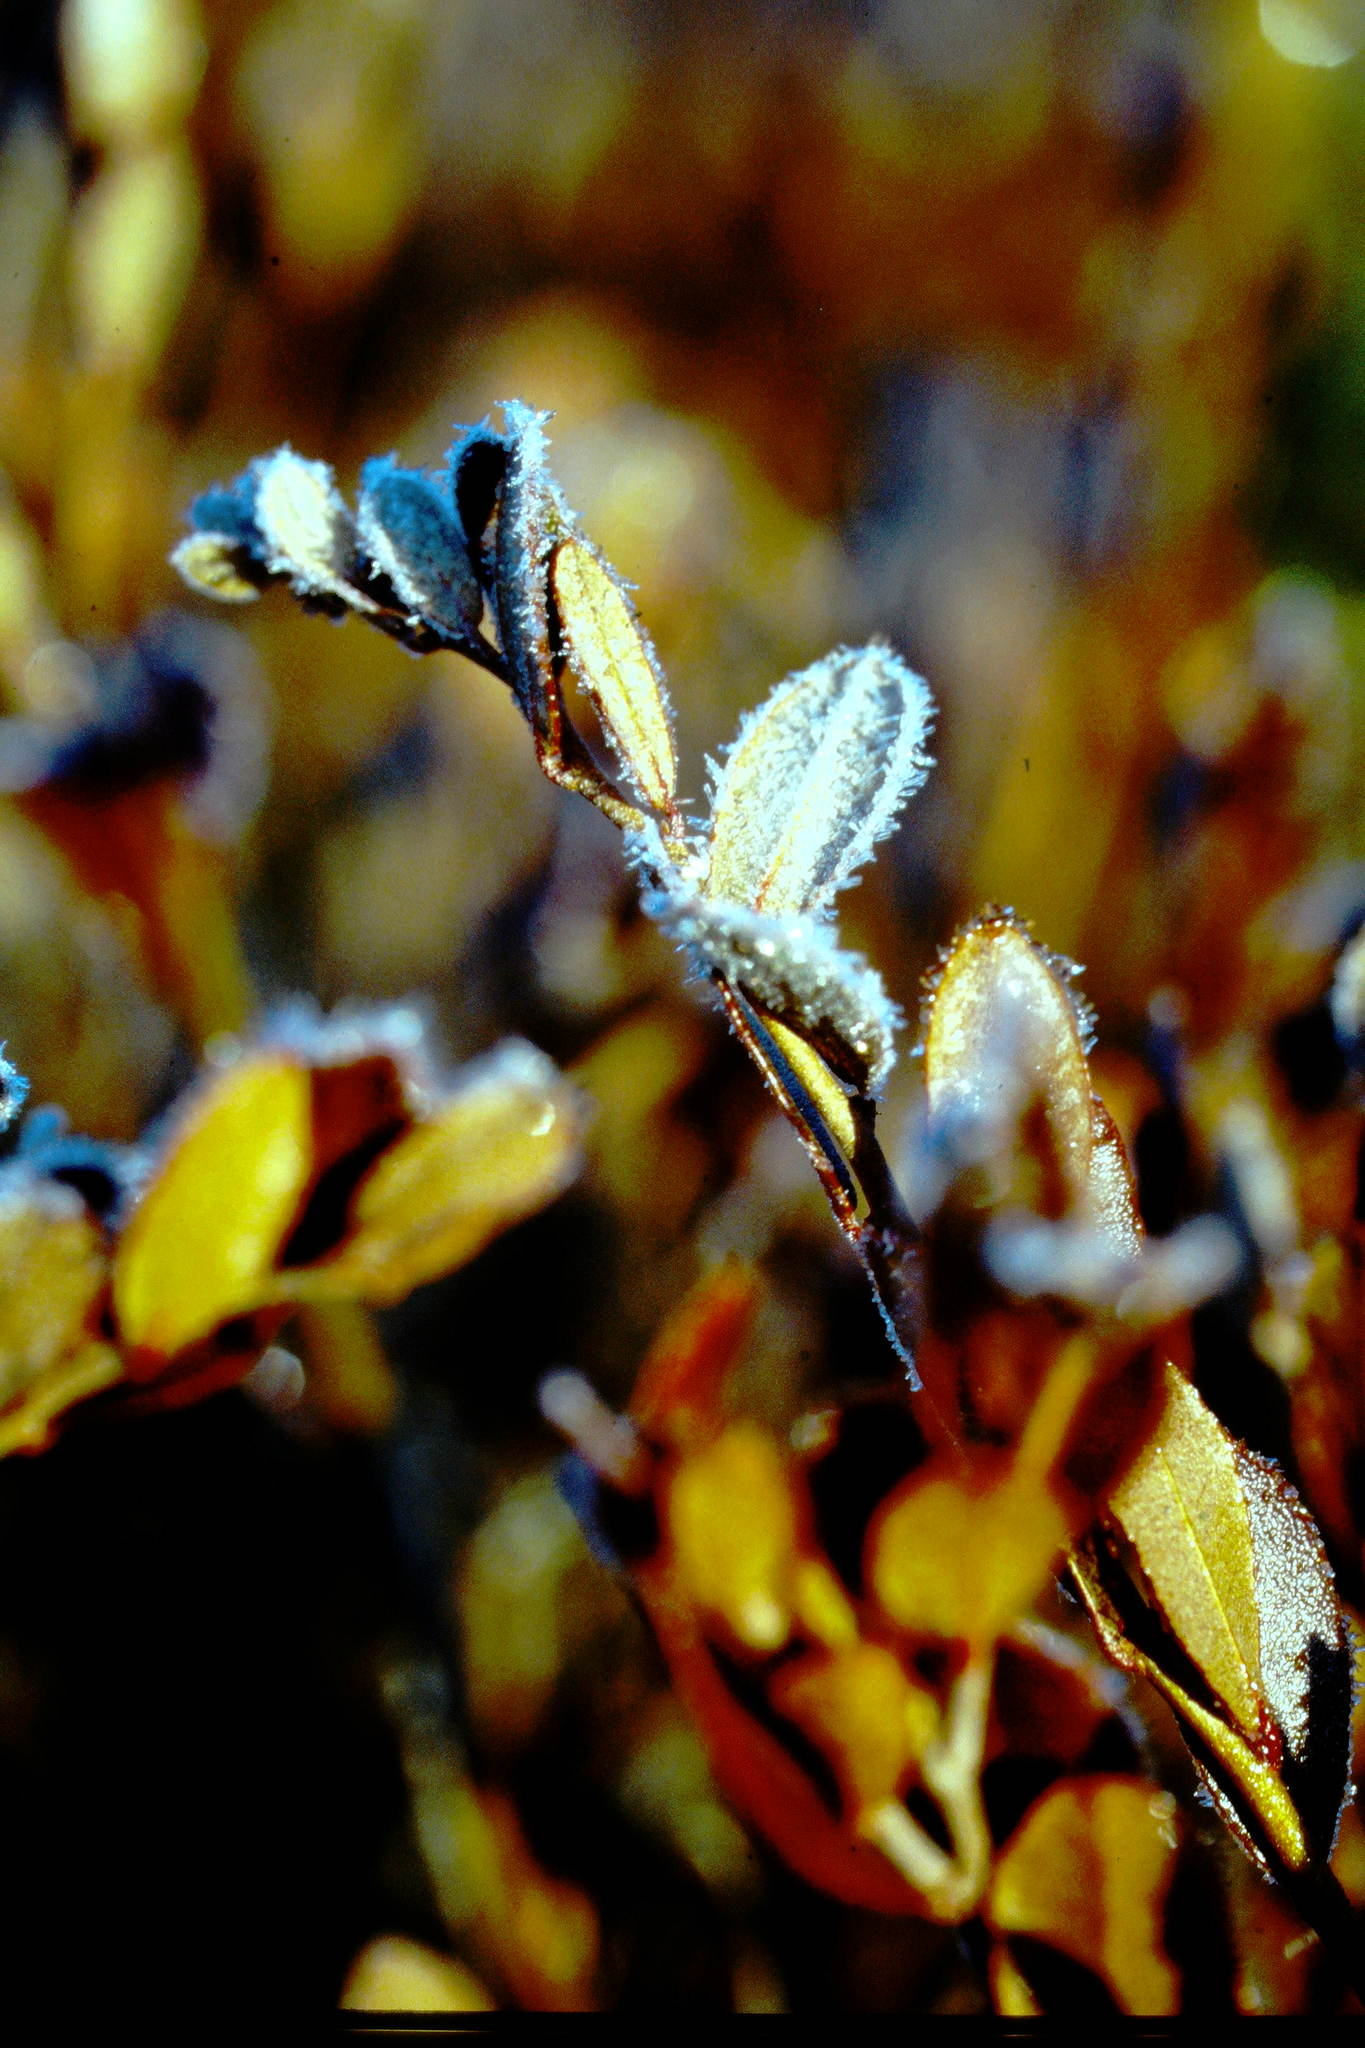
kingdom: Plantae
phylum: Tracheophyta
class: Magnoliopsida
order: Ericales
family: Ericaceae
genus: Chamaedaphne
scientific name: Chamaedaphne calyculata
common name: Leatherleaf
